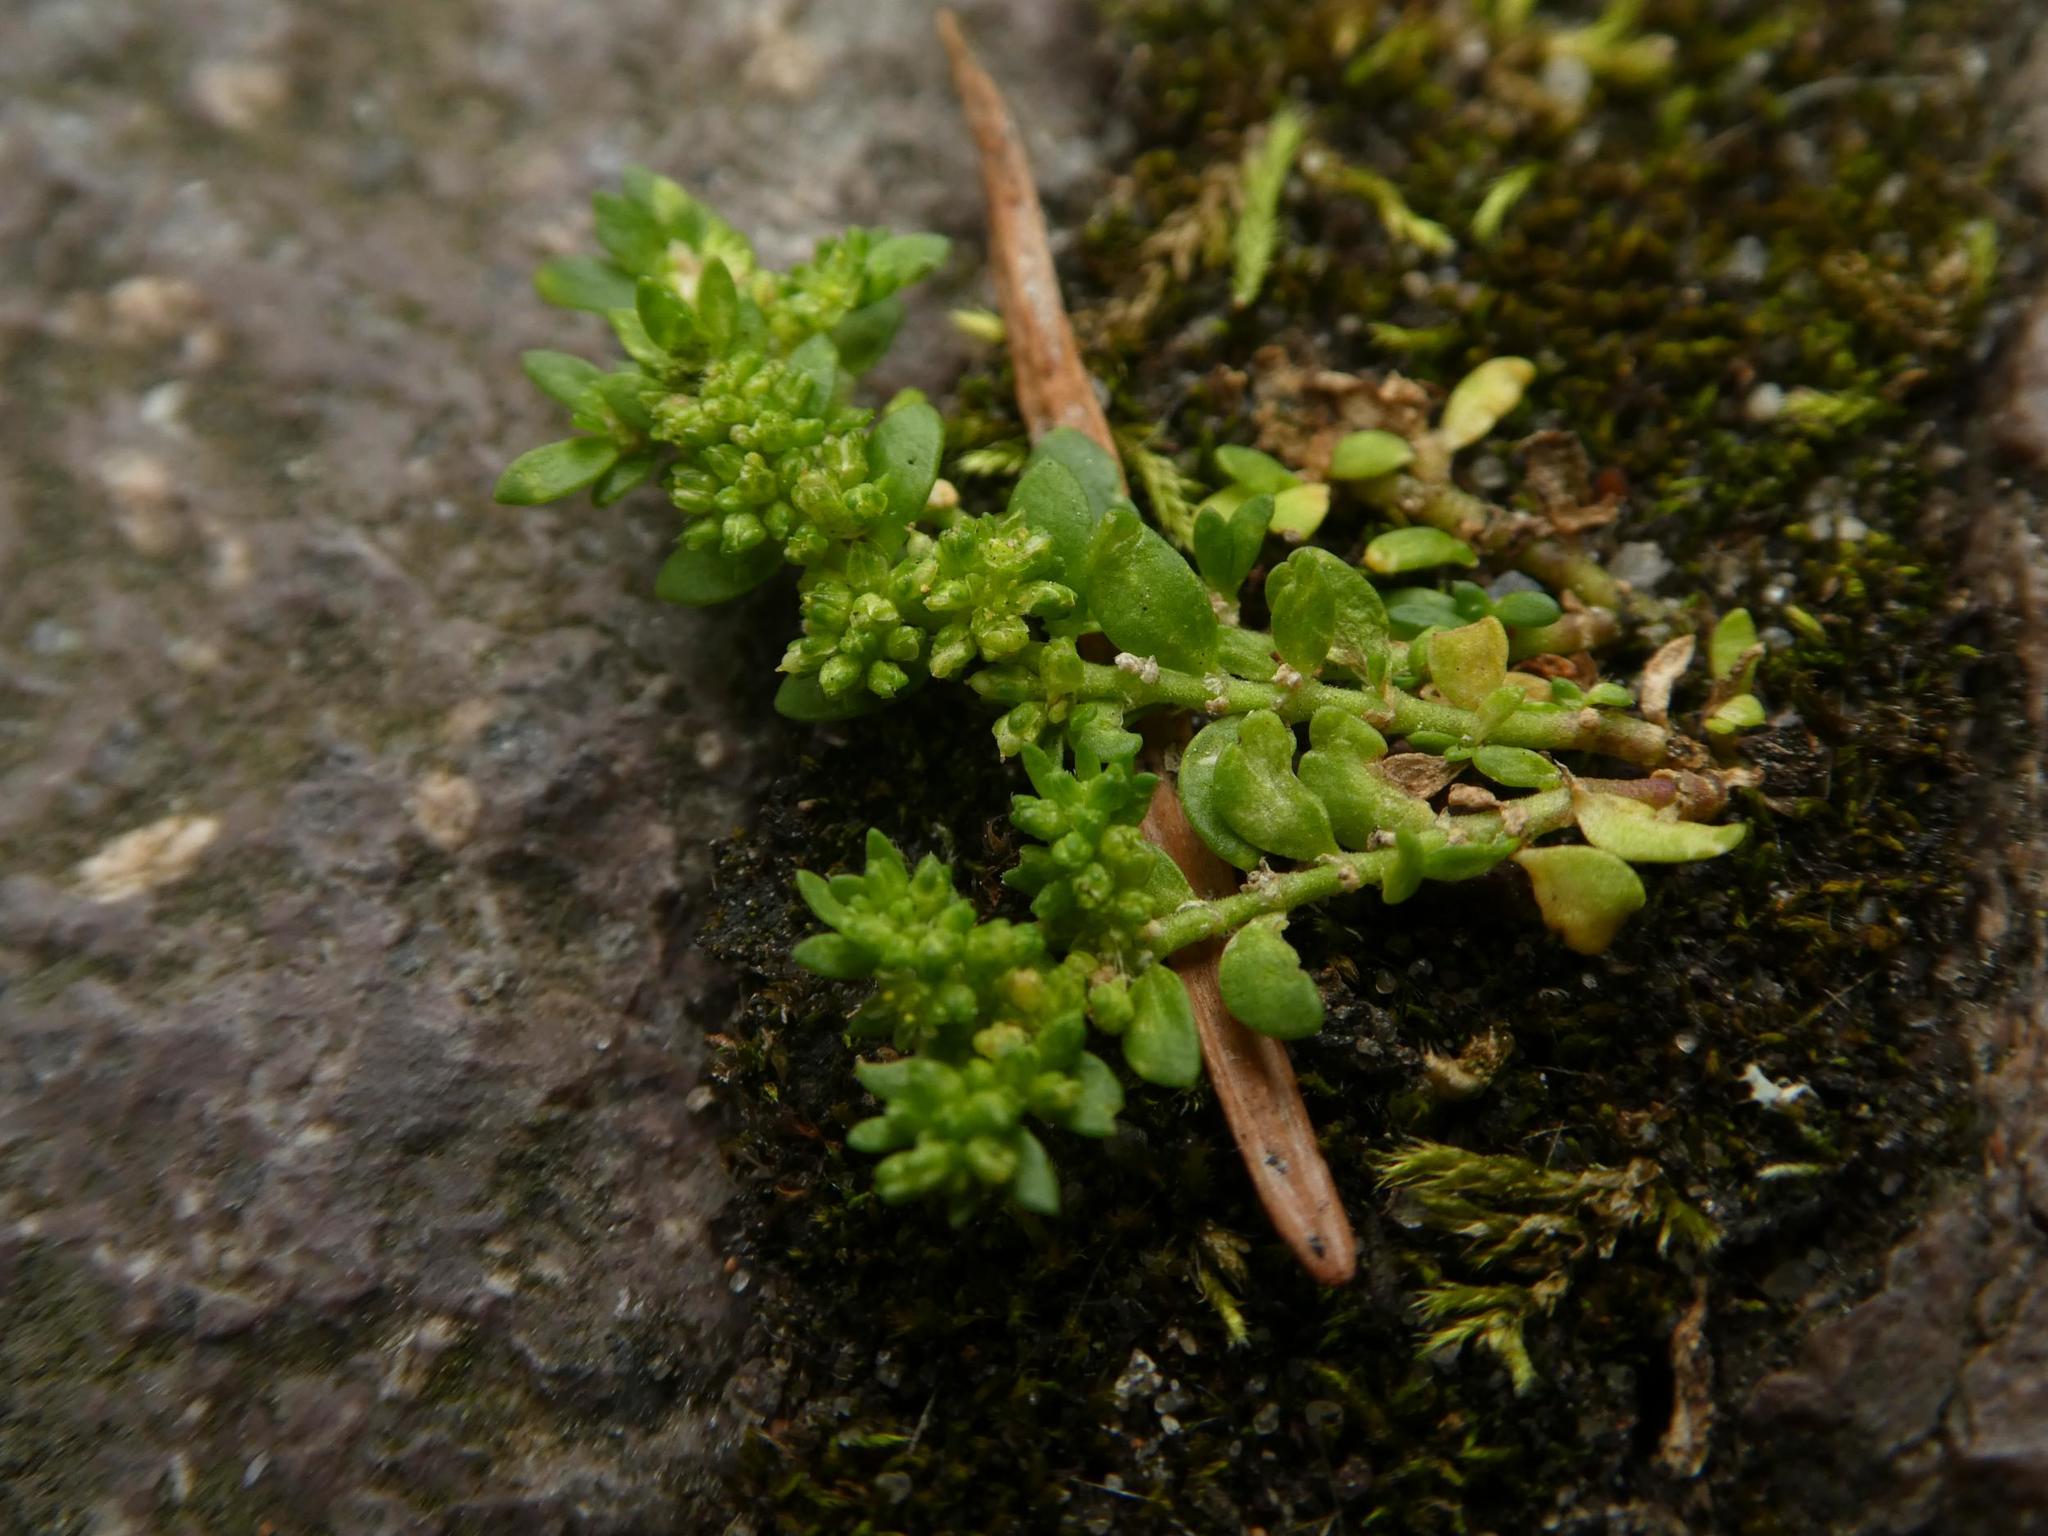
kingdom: Plantae
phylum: Tracheophyta
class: Magnoliopsida
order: Caryophyllales
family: Caryophyllaceae
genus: Herniaria
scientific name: Herniaria glabra
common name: Smooth rupturewort
